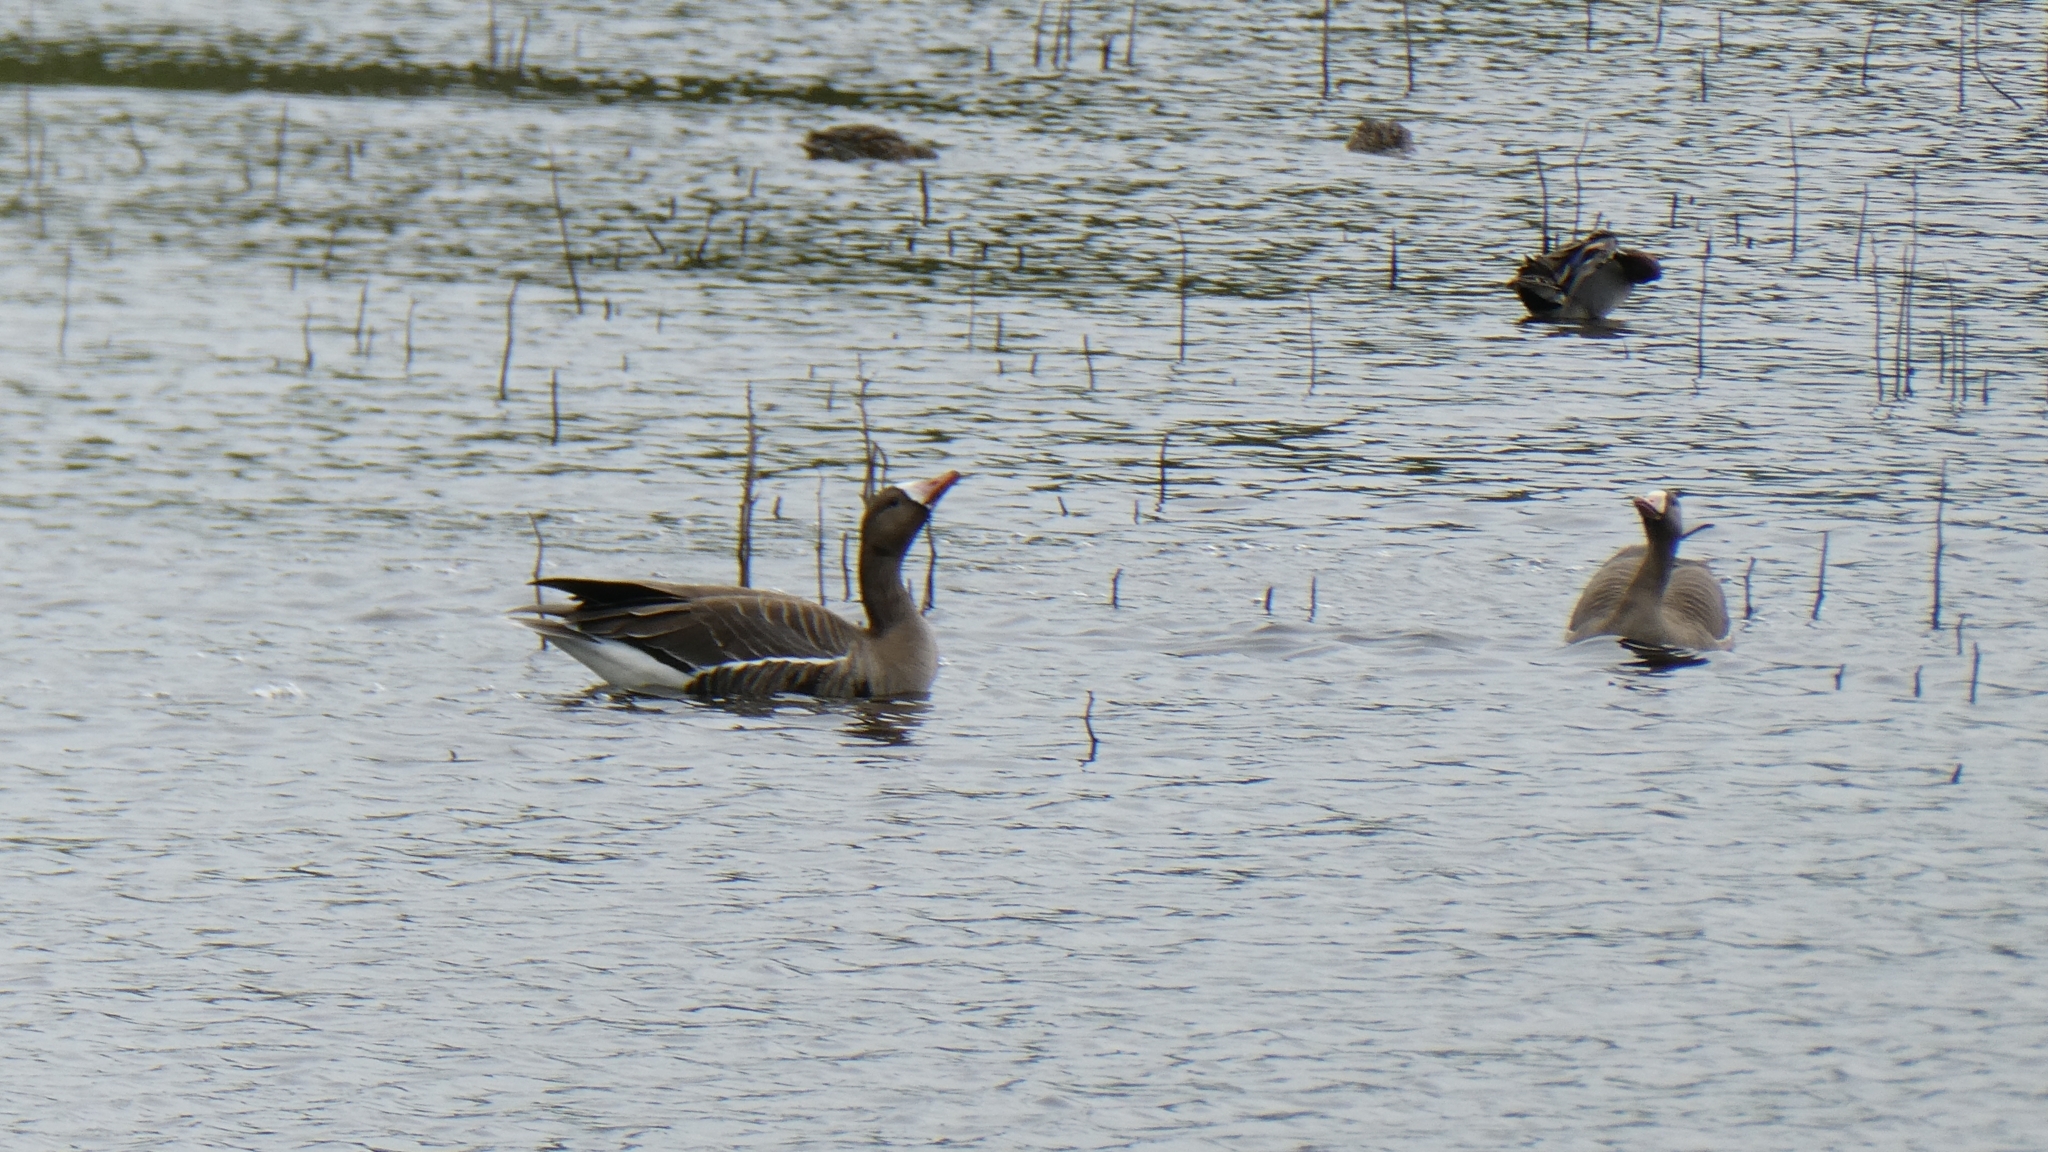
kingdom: Animalia
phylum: Chordata
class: Aves
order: Anseriformes
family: Anatidae
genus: Anser
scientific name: Anser albifrons
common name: Greater white-fronted goose
